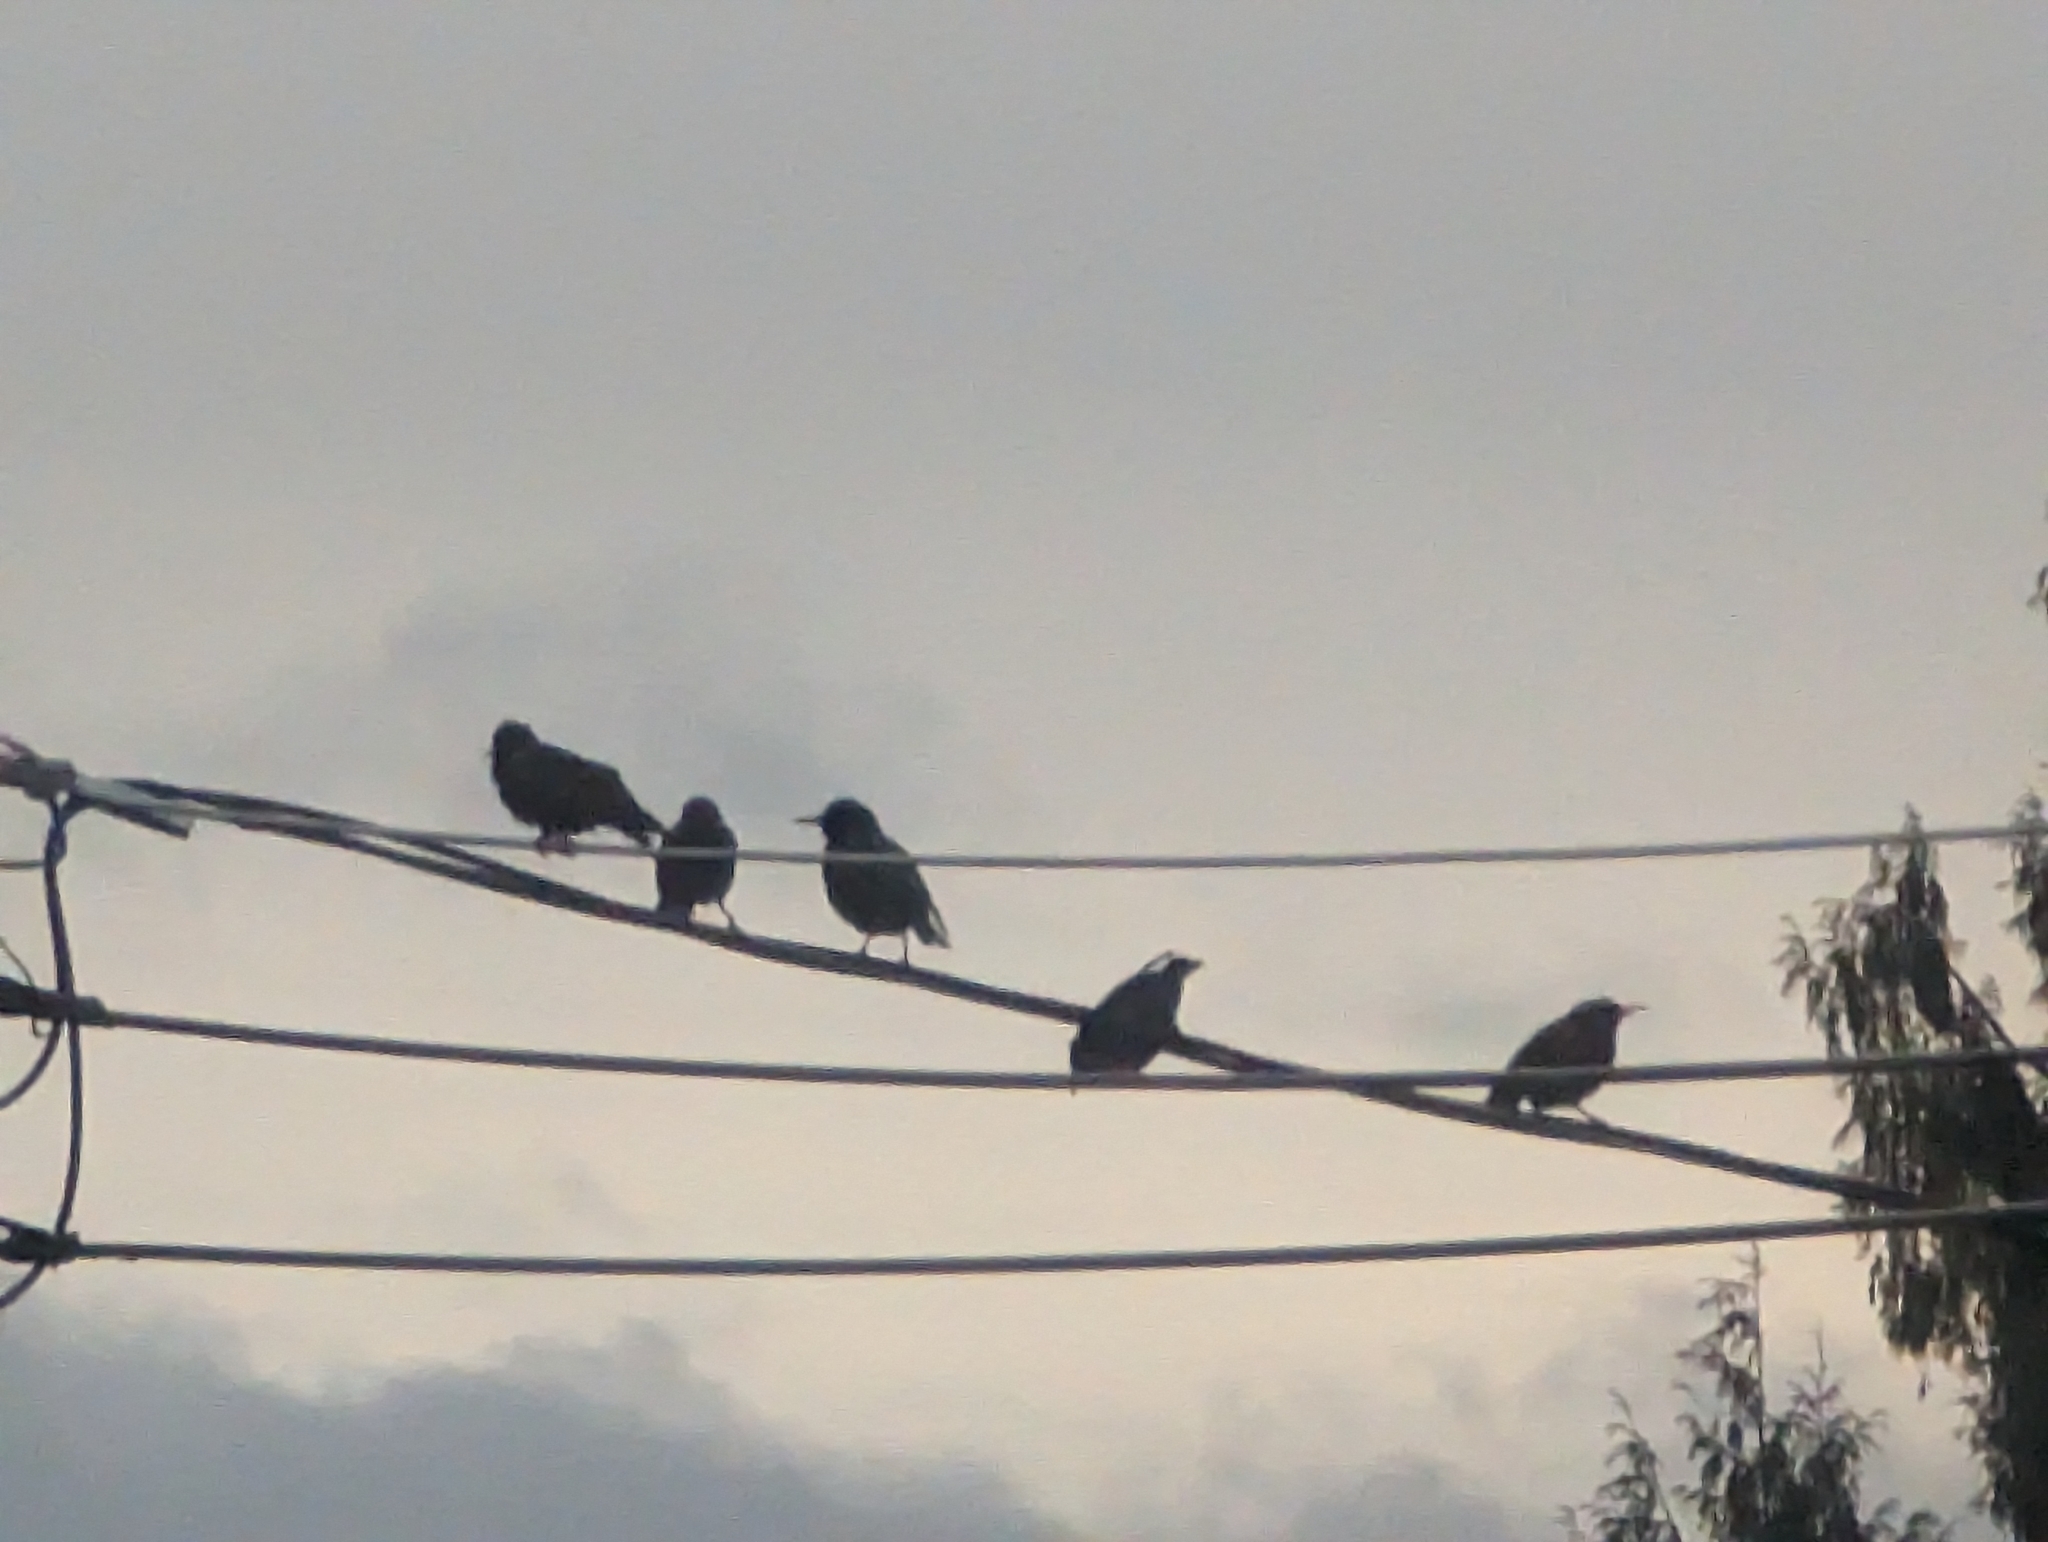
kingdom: Animalia
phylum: Chordata
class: Aves
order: Passeriformes
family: Sturnidae
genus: Sturnus
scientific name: Sturnus vulgaris
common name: Common starling
